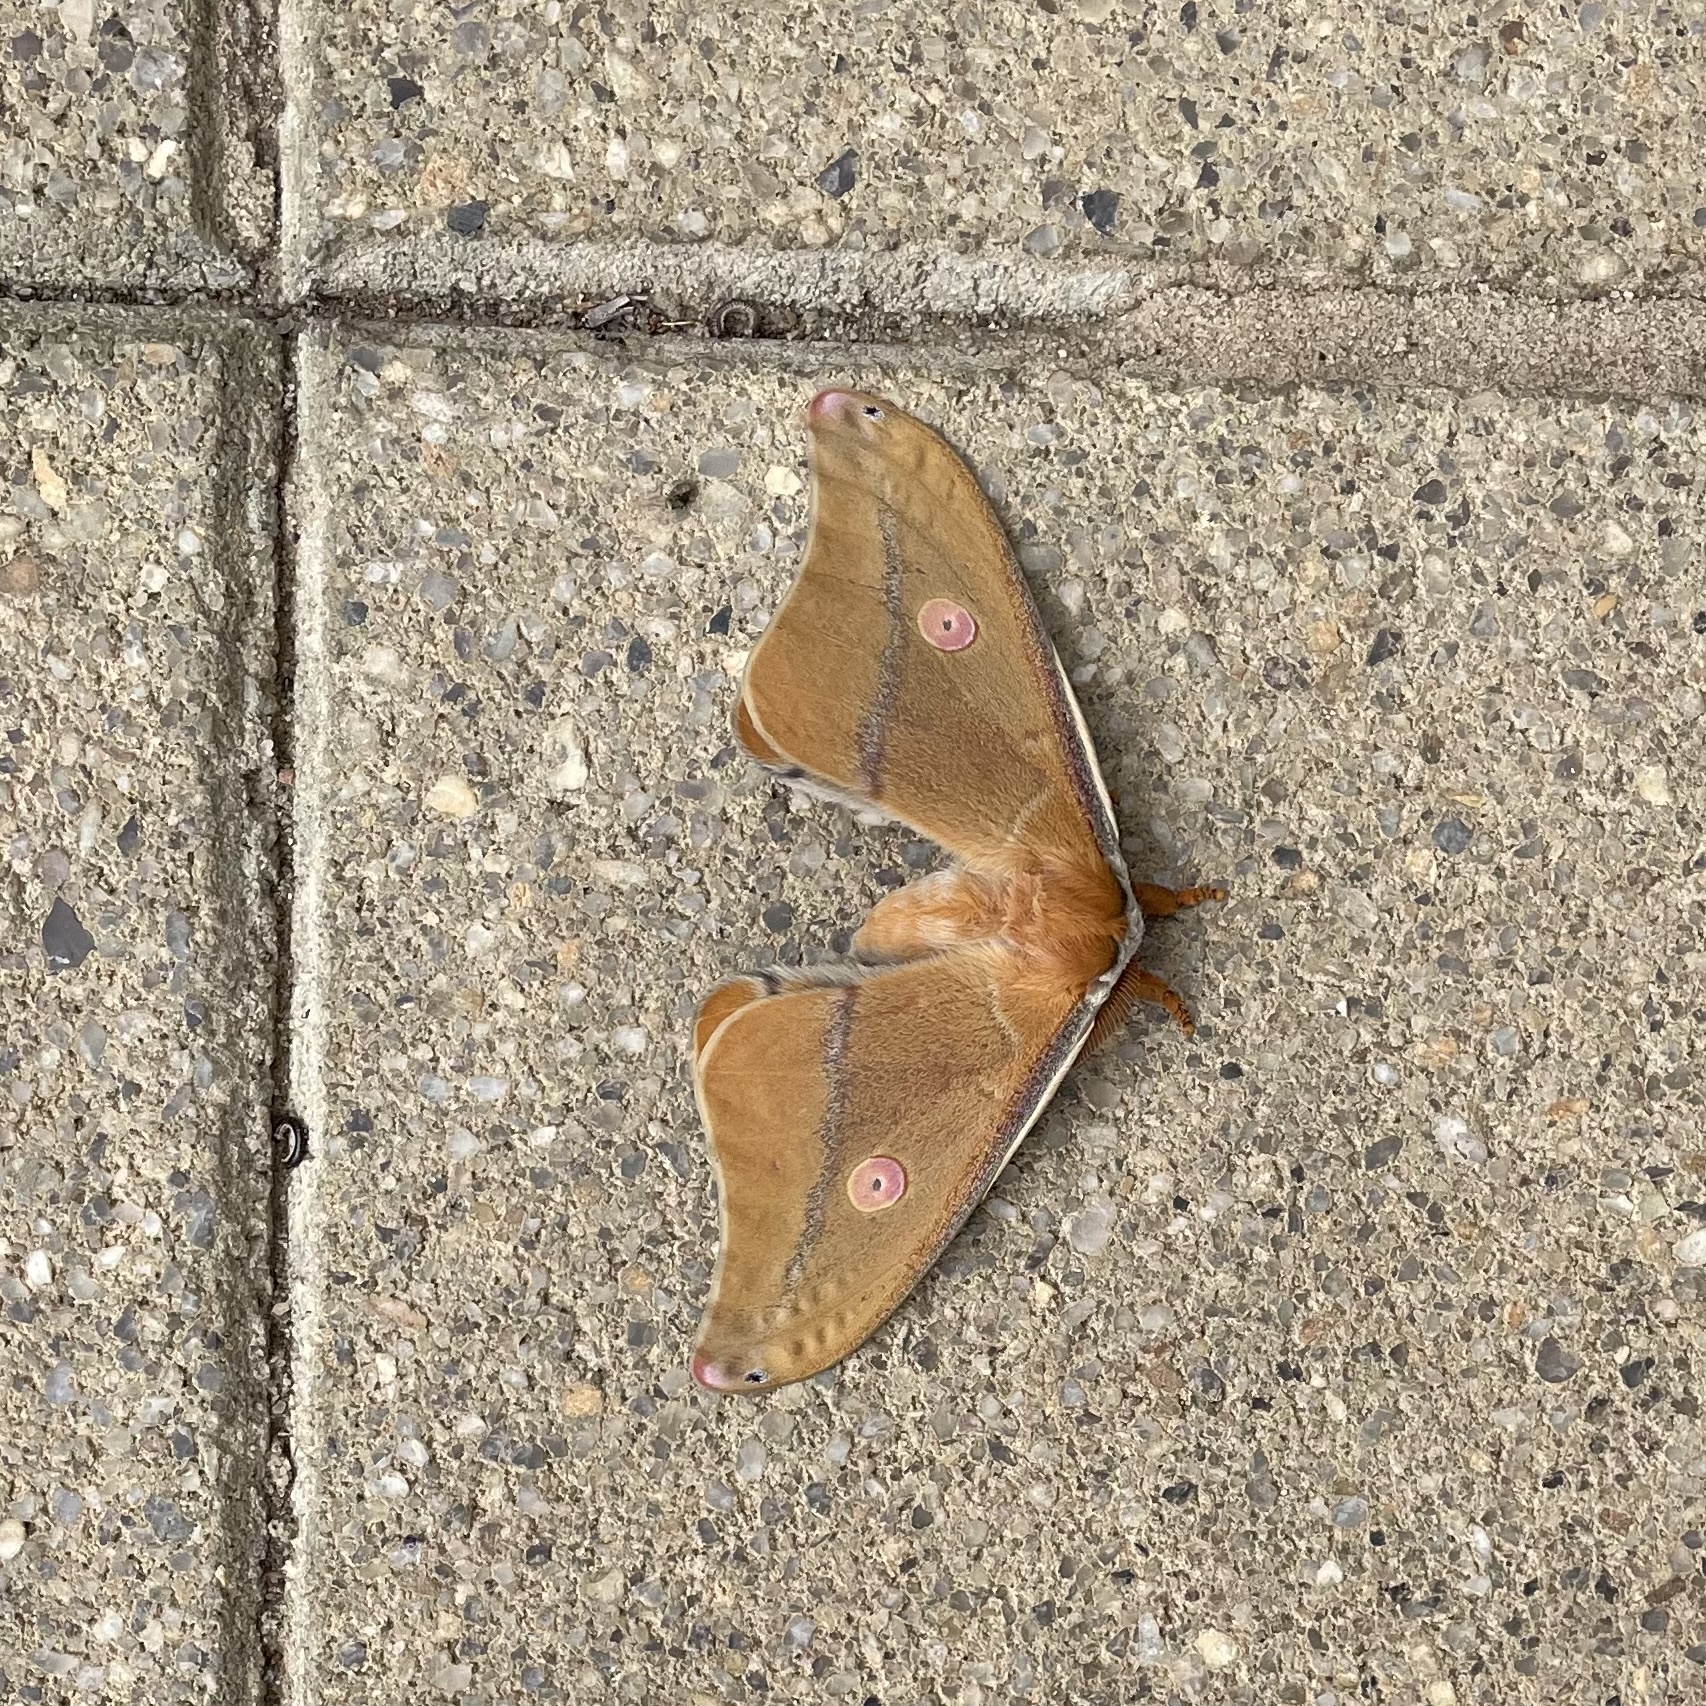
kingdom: Animalia
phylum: Arthropoda
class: Insecta
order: Lepidoptera
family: Saturniidae
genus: Opodiphthera
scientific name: Opodiphthera
